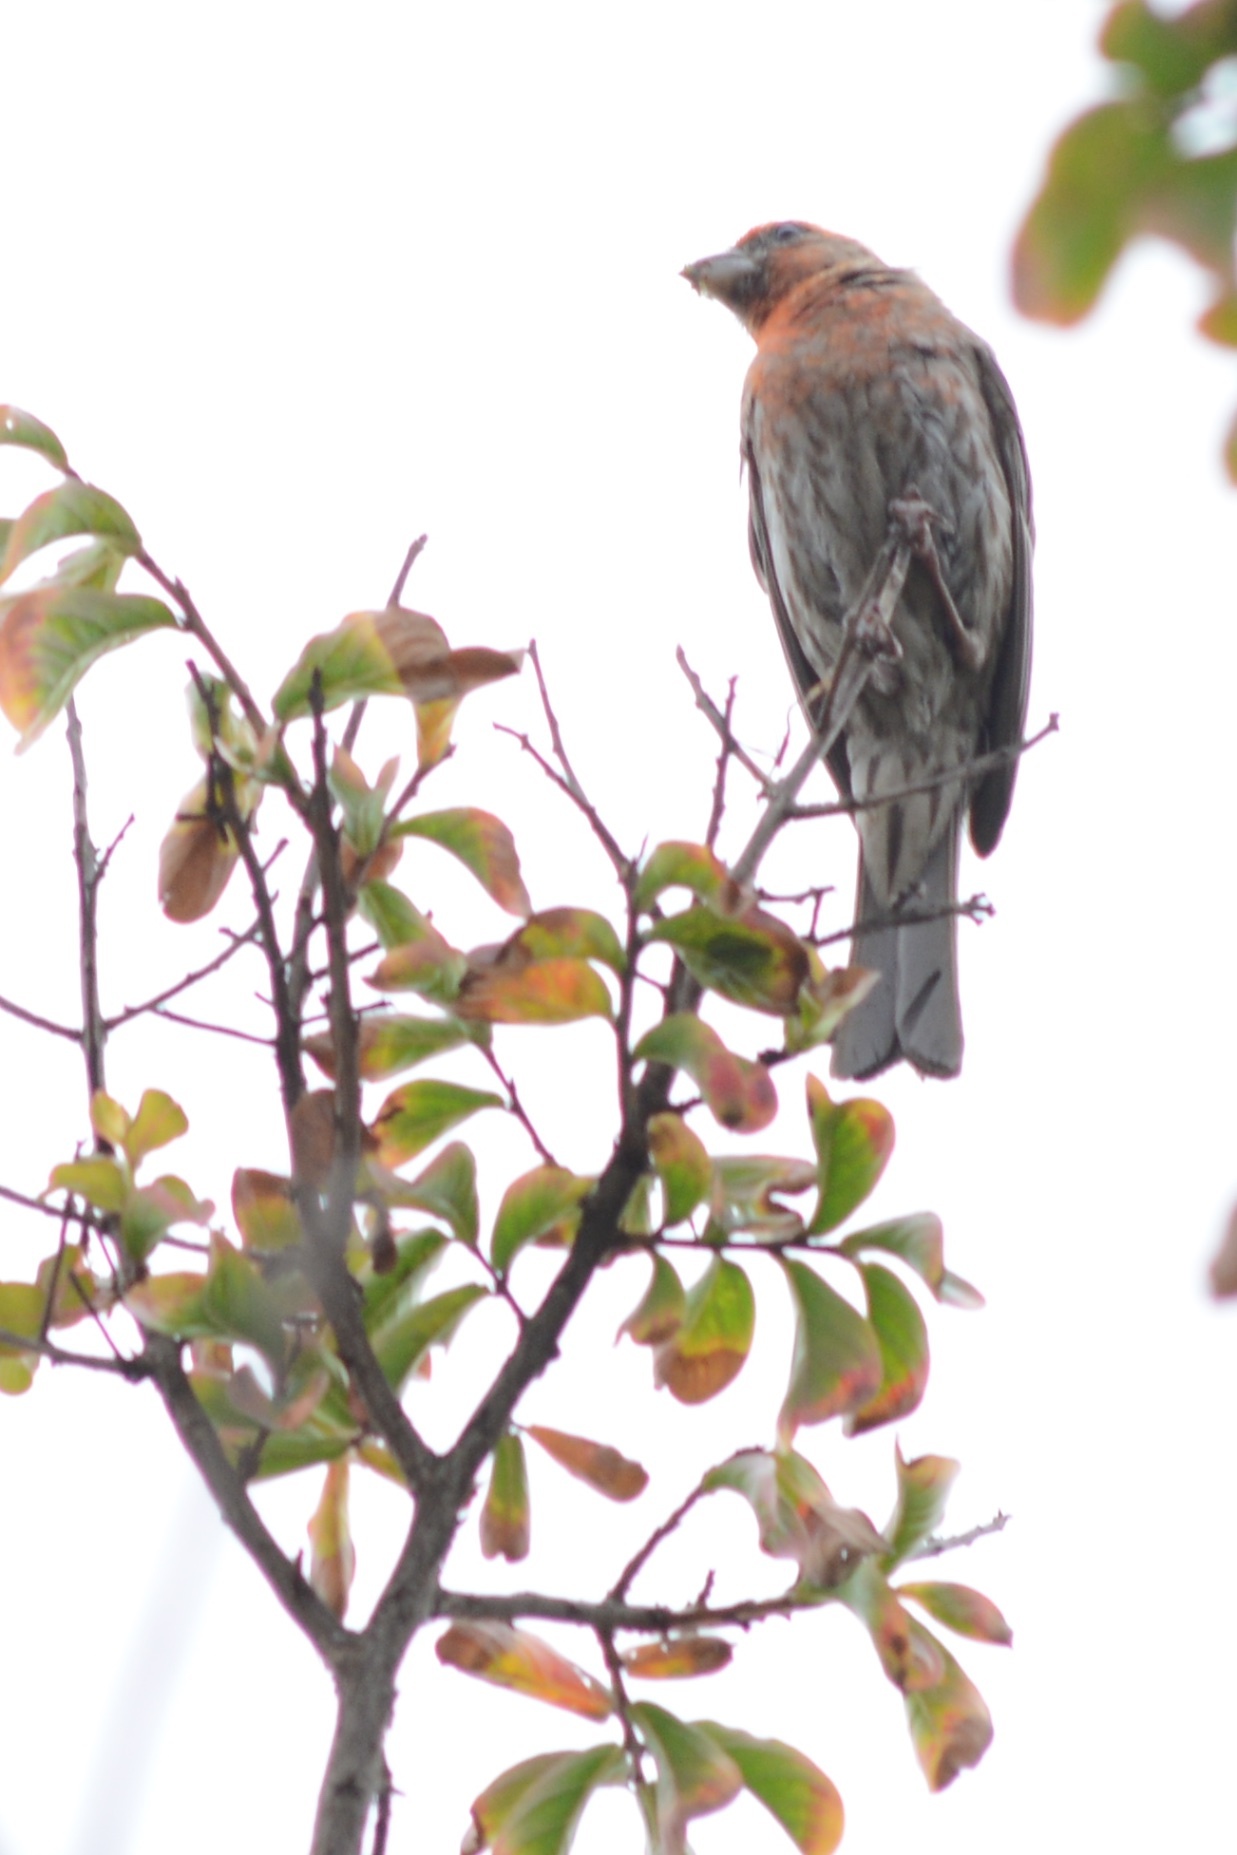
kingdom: Animalia
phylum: Chordata
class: Aves
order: Passeriformes
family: Fringillidae
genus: Haemorhous
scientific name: Haemorhous mexicanus
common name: House finch
